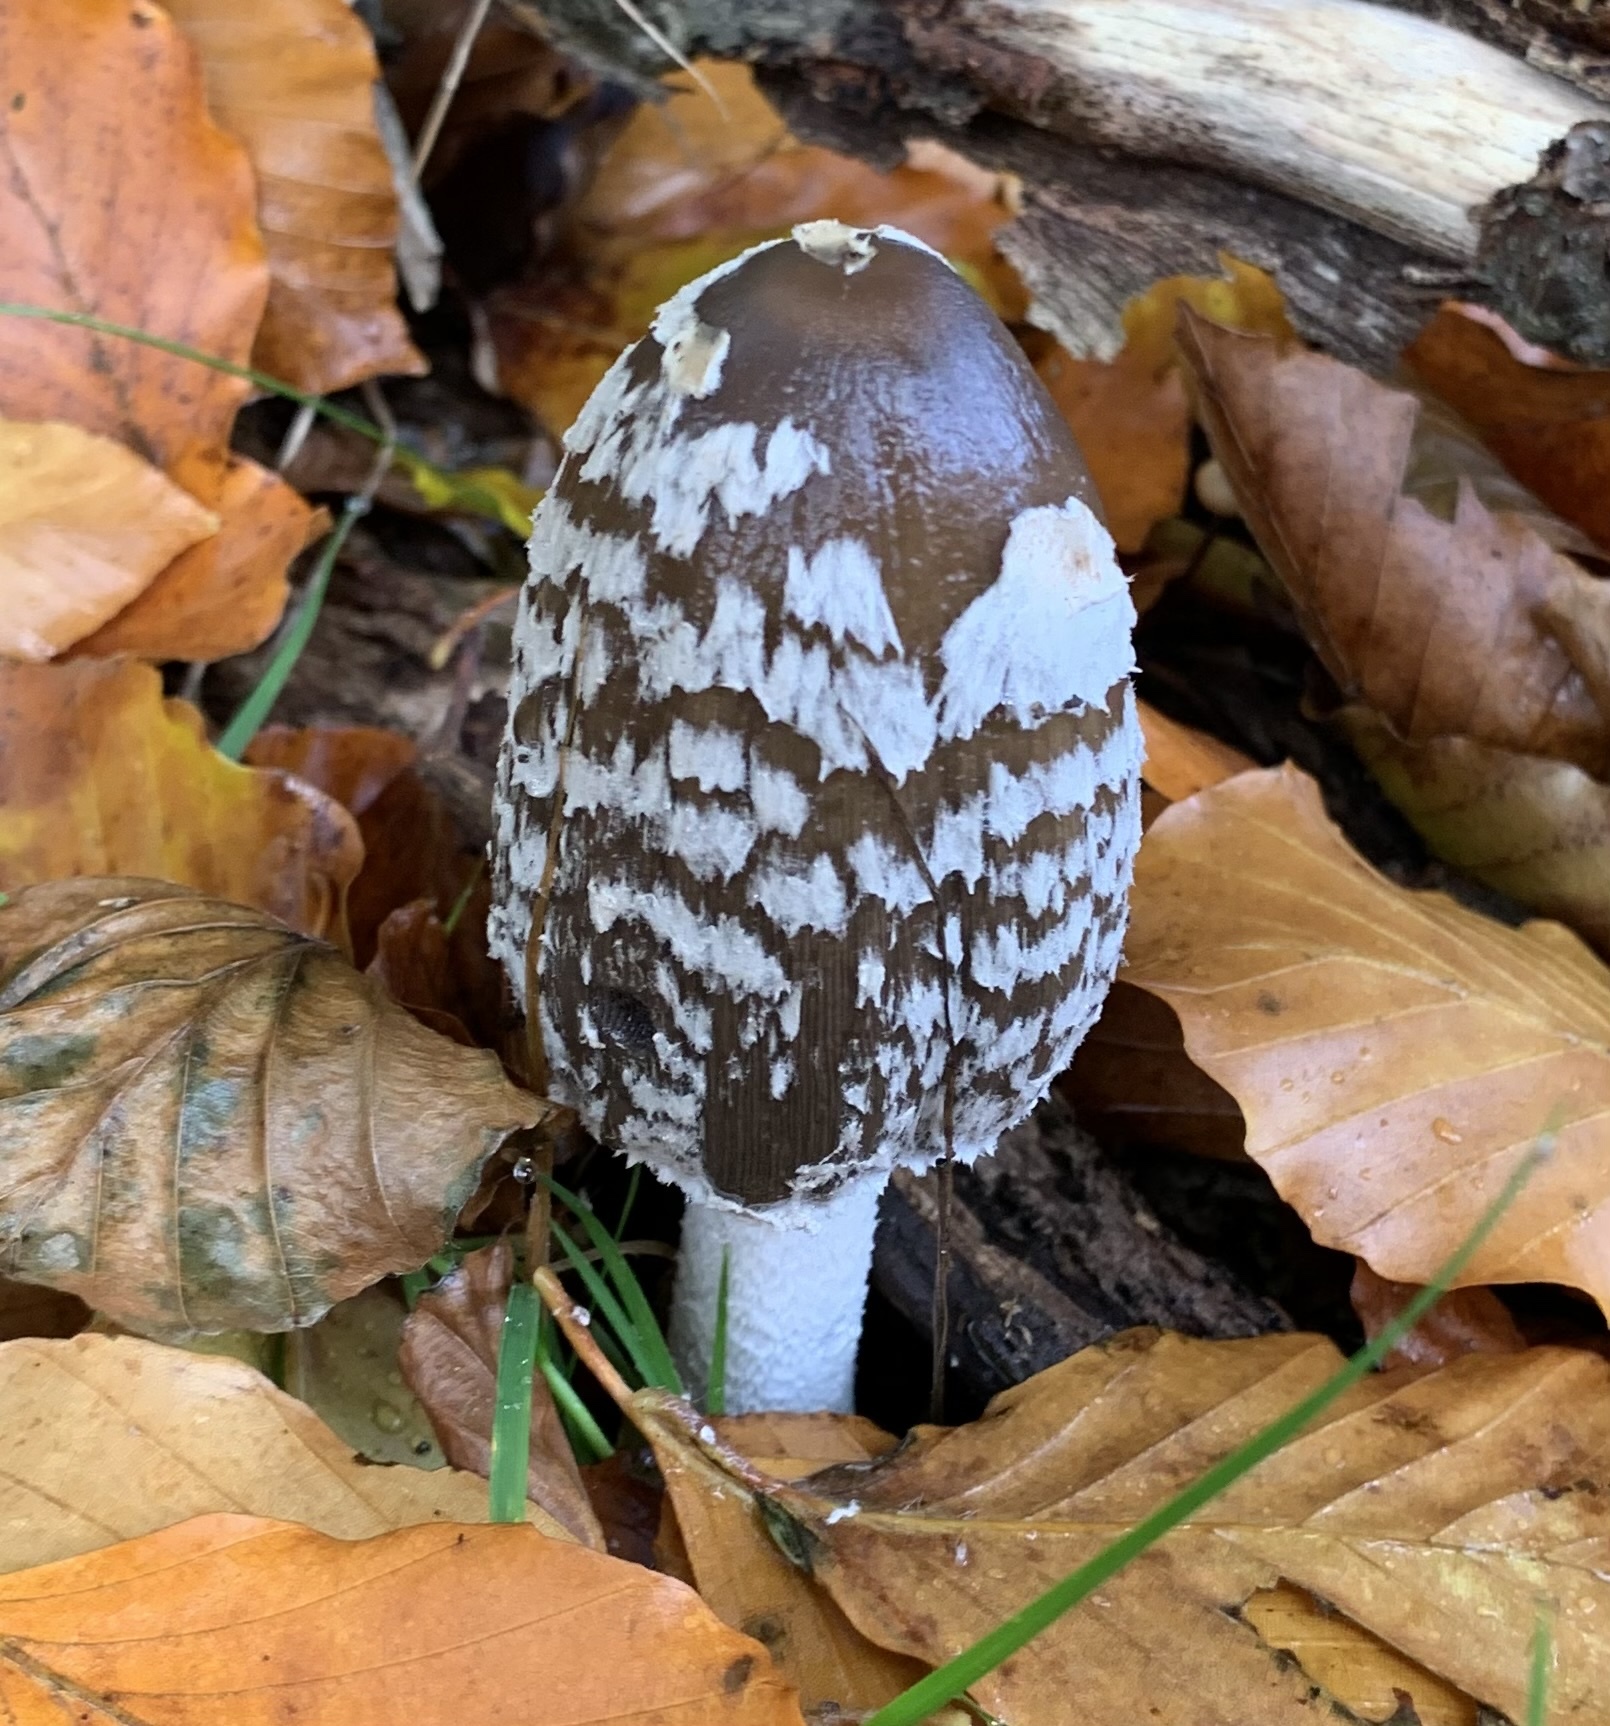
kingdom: Fungi
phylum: Basidiomycota
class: Agaricomycetes
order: Agaricales
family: Psathyrellaceae
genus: Coprinopsis
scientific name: Coprinopsis picacea
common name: Magpie inkcap
